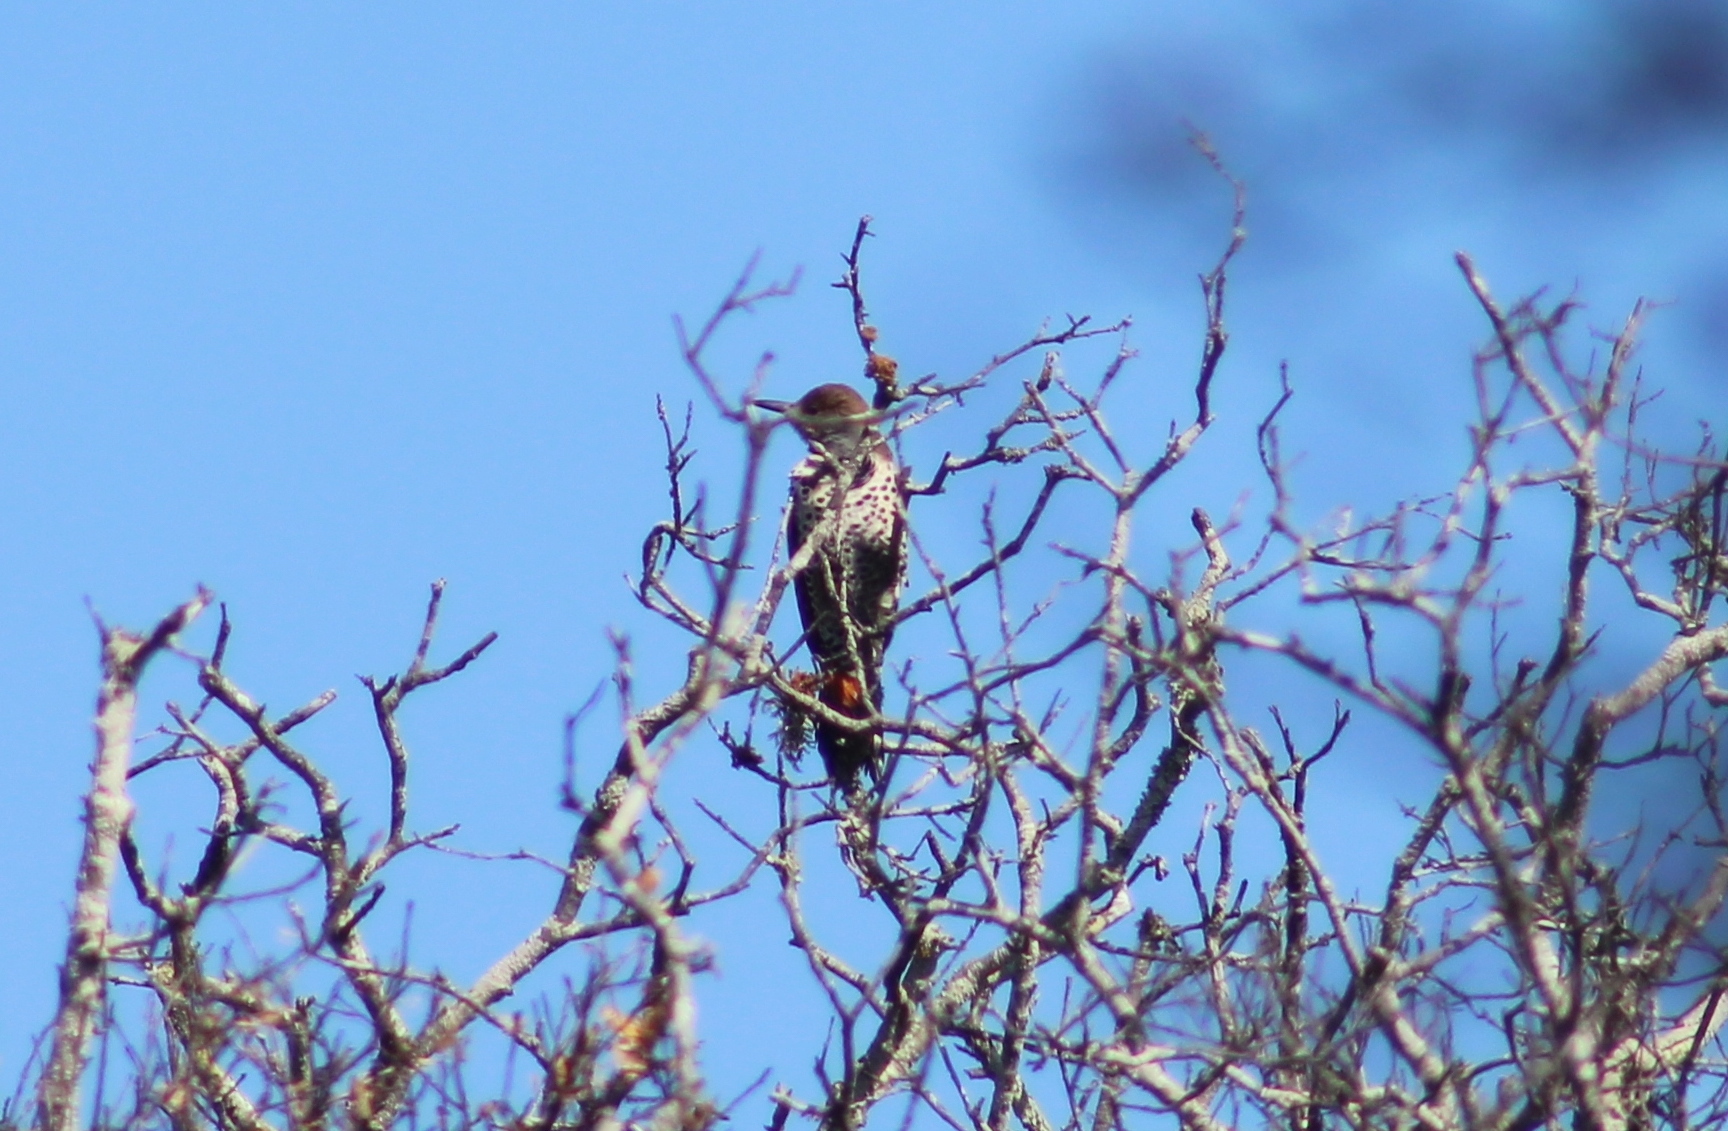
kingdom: Animalia
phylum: Chordata
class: Aves
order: Piciformes
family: Picidae
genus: Colaptes
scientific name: Colaptes auratus
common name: Northern flicker
